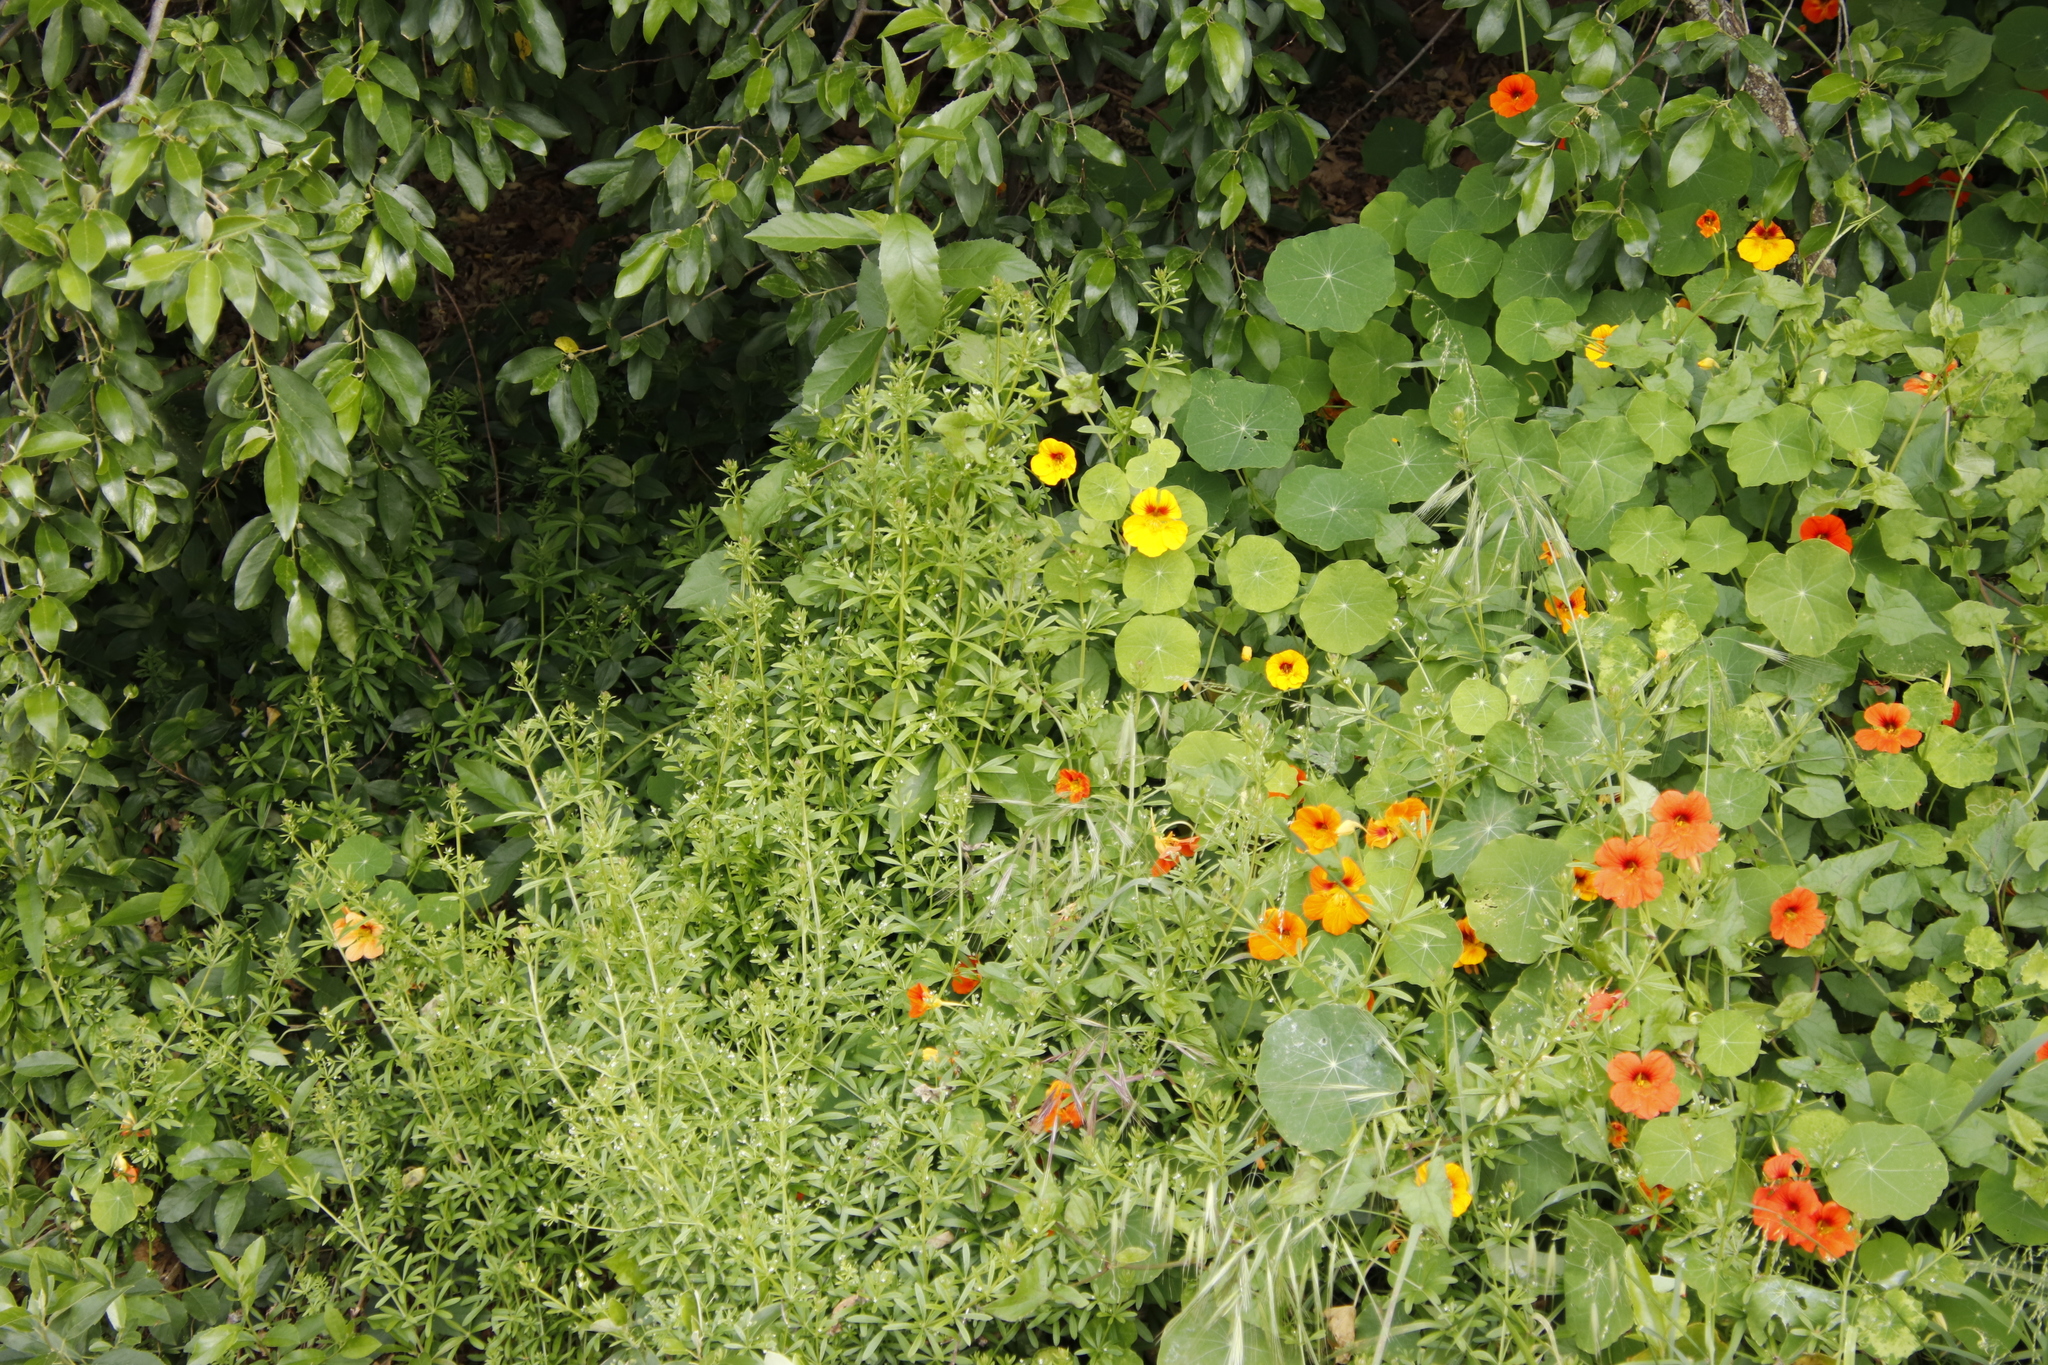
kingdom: Plantae
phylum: Tracheophyta
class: Magnoliopsida
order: Brassicales
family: Tropaeolaceae
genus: Tropaeolum
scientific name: Tropaeolum majus
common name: Nasturtium
